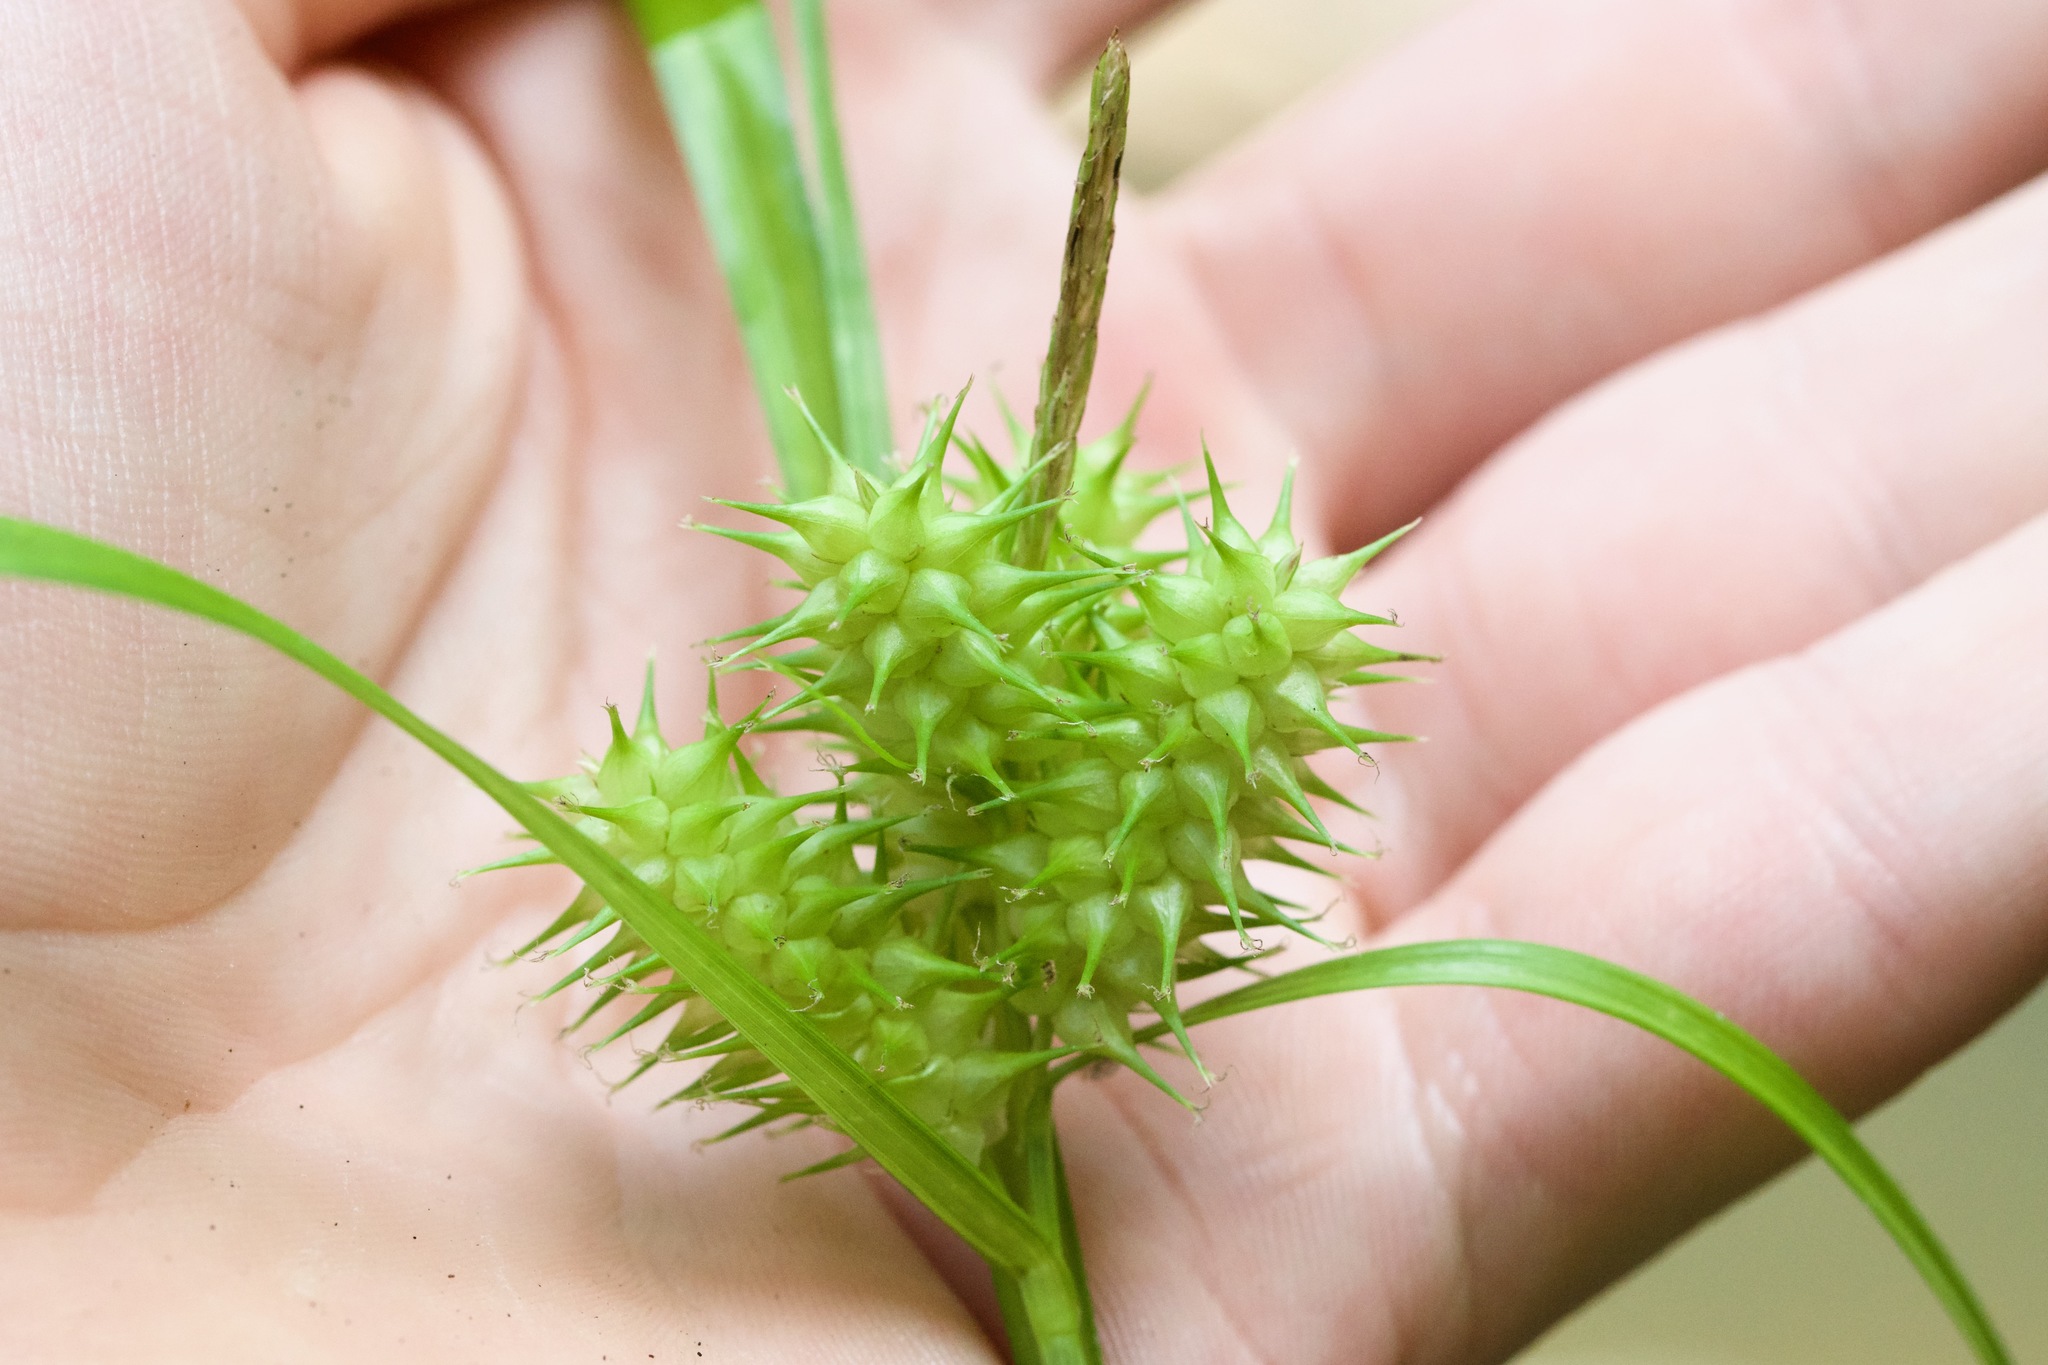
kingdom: Plantae
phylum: Tracheophyta
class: Liliopsida
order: Poales
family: Cyperaceae
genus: Carex
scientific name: Carex retrorsa
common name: Knot-sheath sedge
